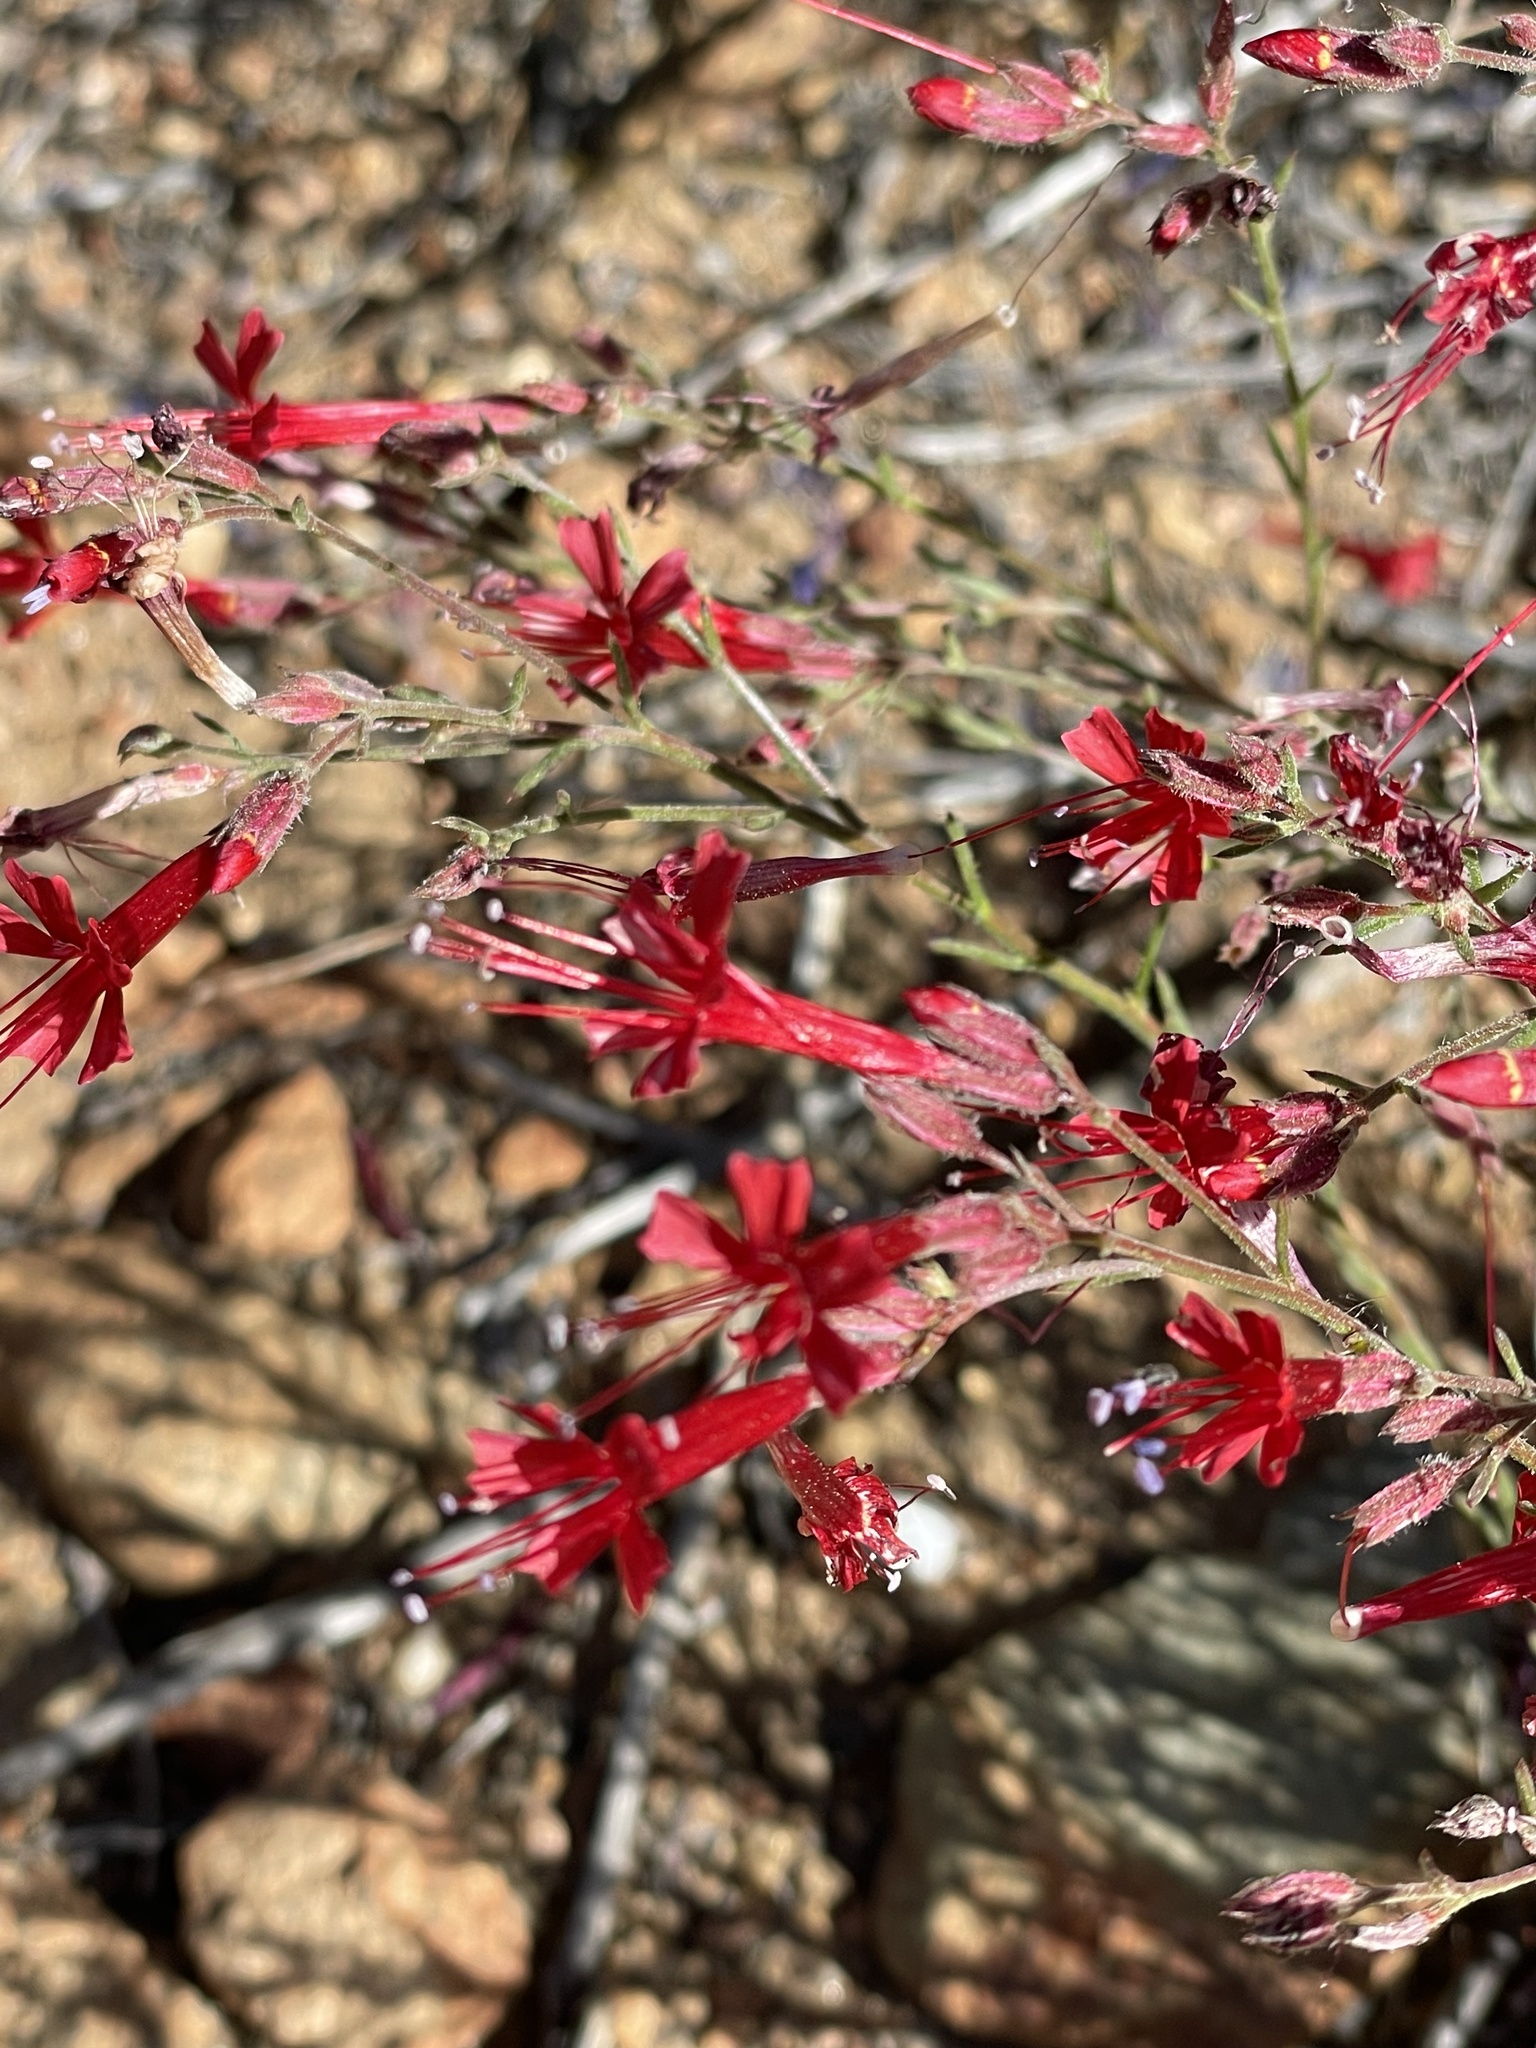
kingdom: Plantae
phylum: Tracheophyta
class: Magnoliopsida
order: Ericales
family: Polemoniaceae
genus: Ipomopsis
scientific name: Ipomopsis tenuifolia
